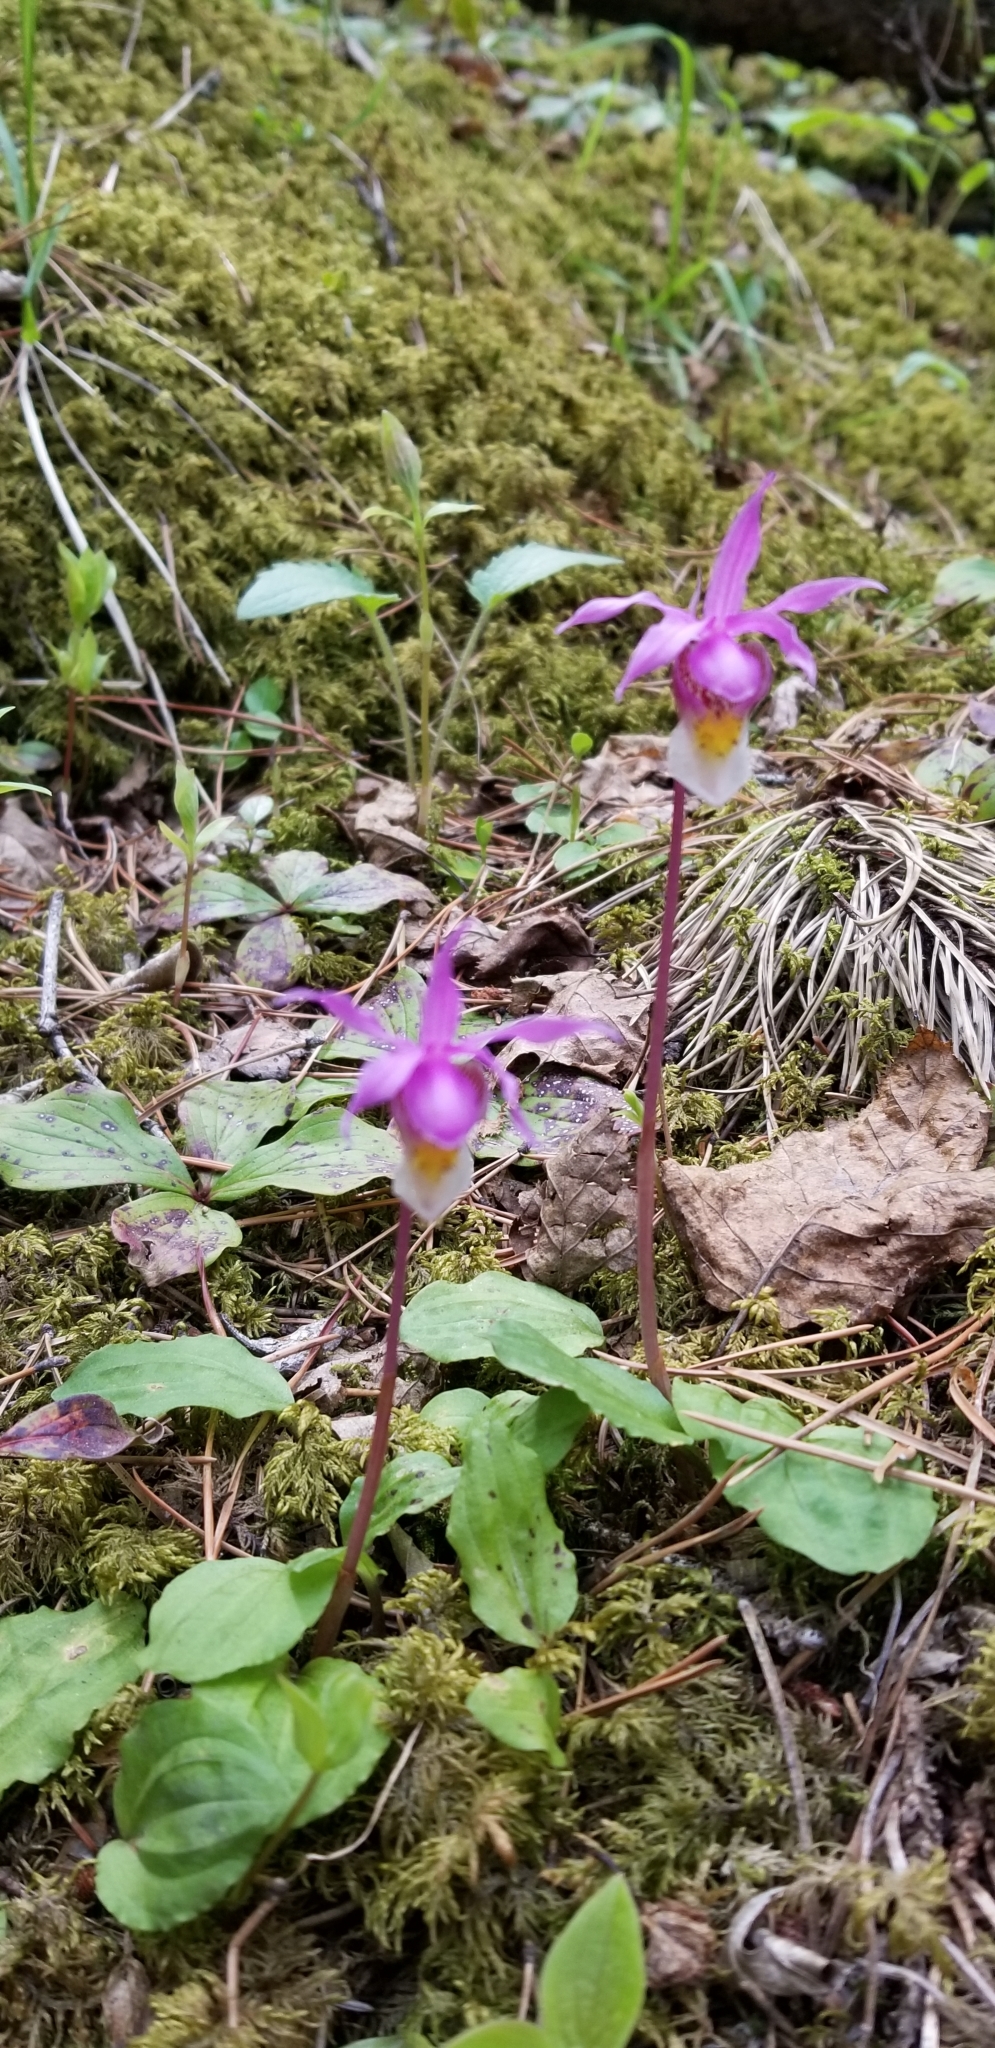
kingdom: Plantae
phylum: Tracheophyta
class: Liliopsida
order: Asparagales
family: Orchidaceae
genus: Calypso
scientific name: Calypso bulbosa
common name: Calypso
